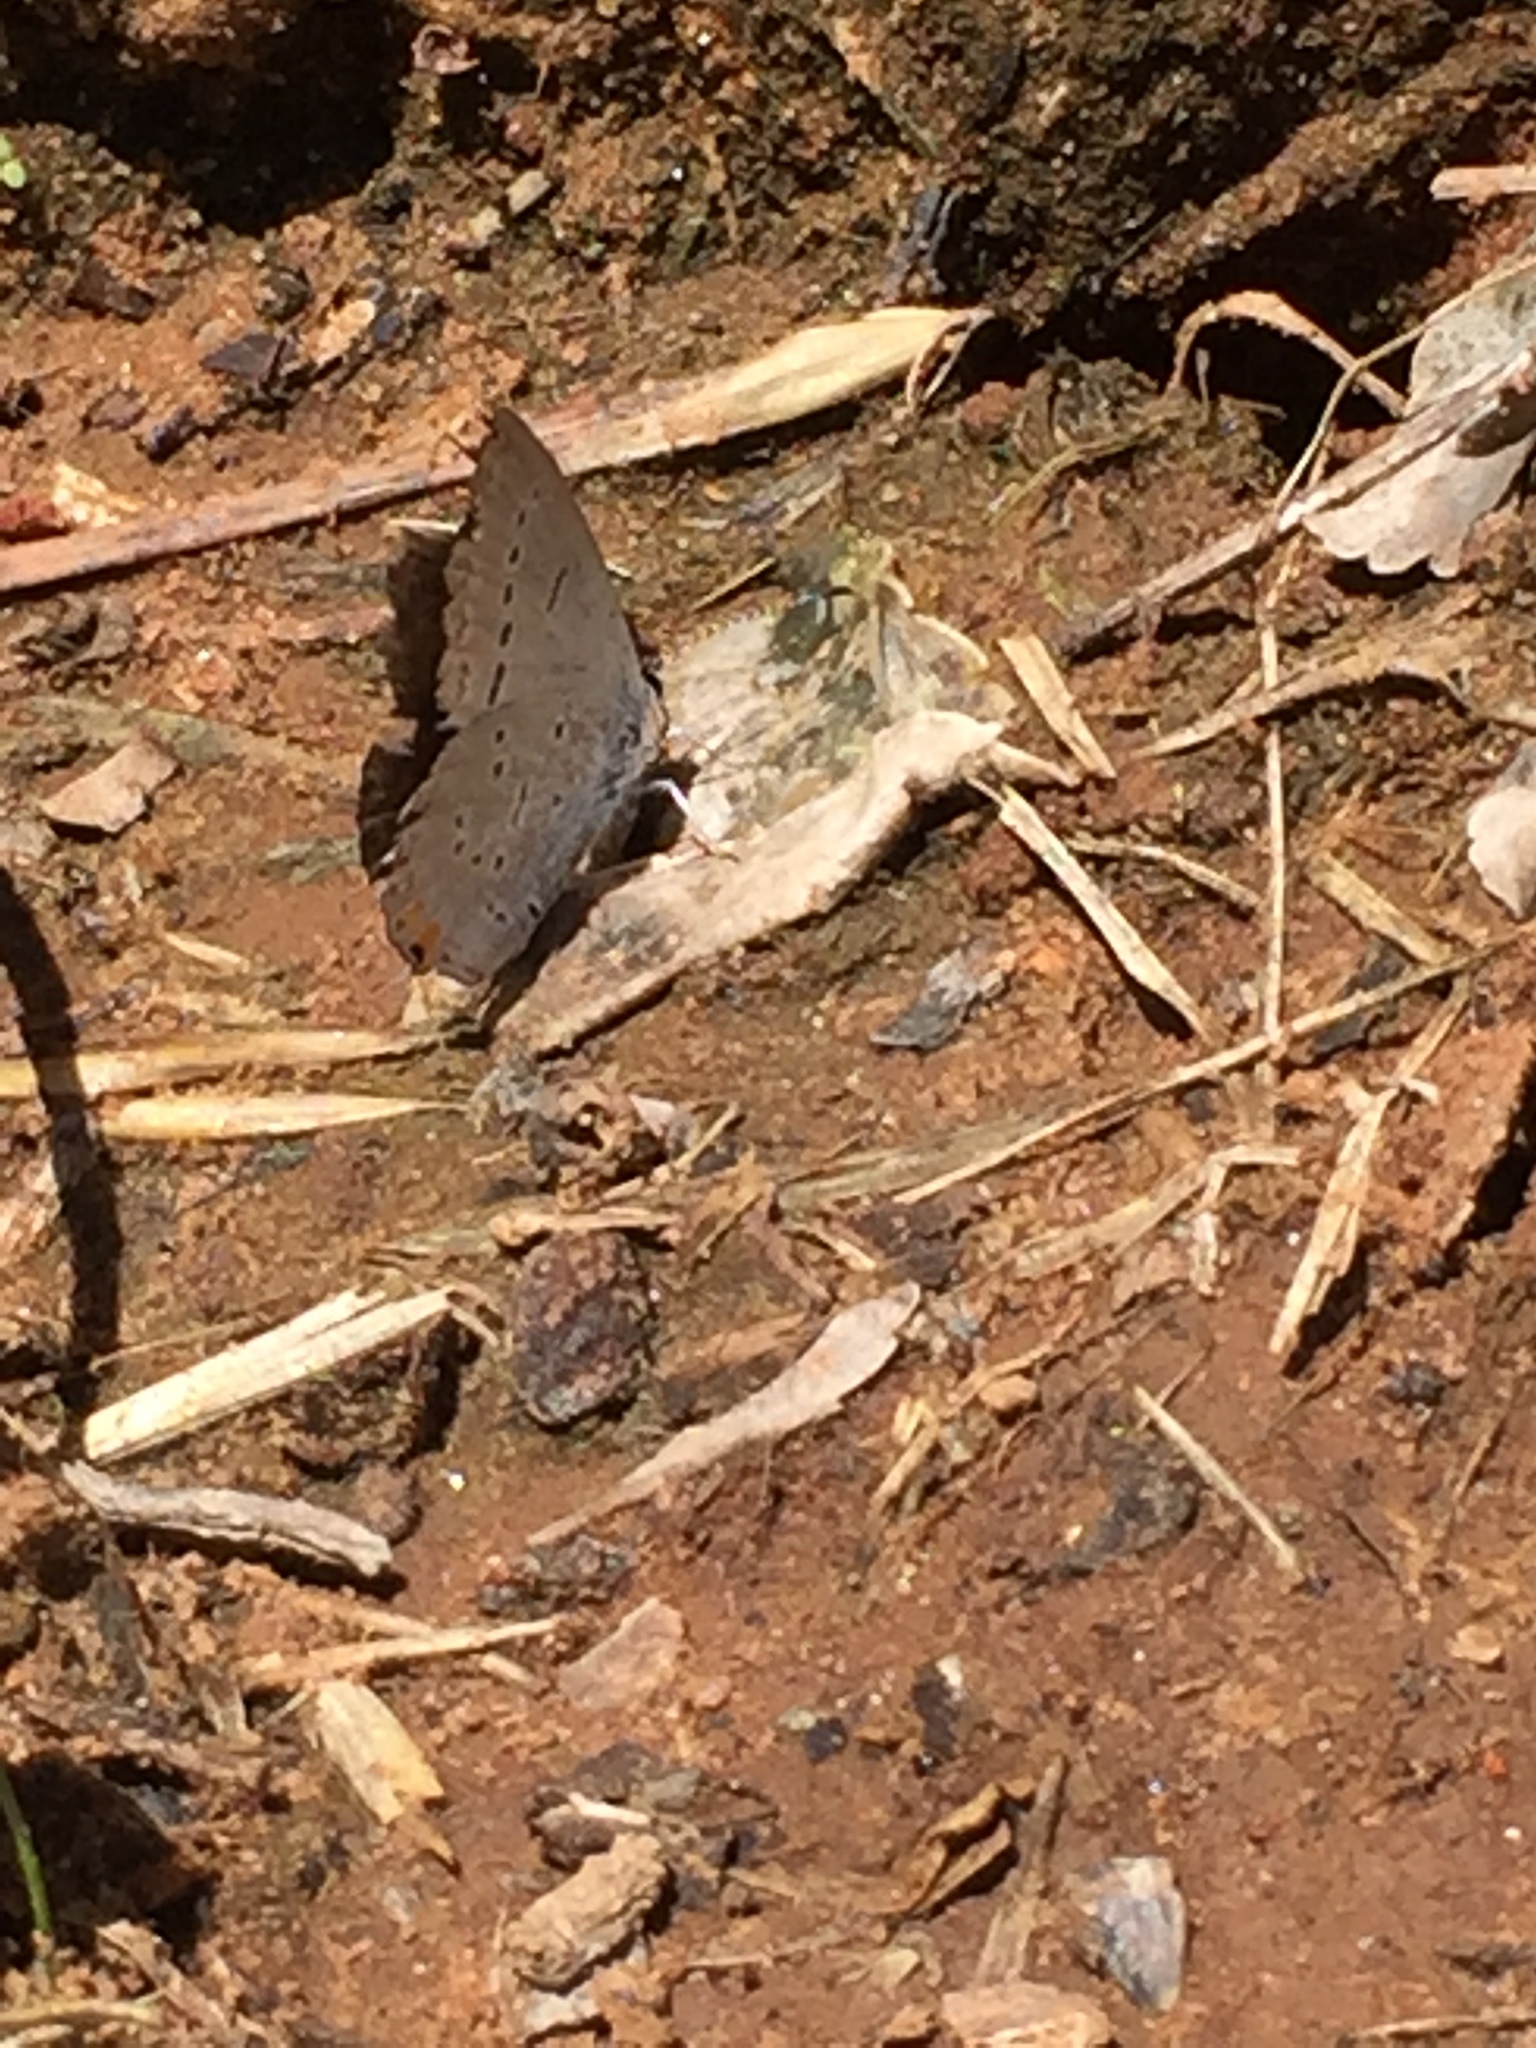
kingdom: Animalia
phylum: Arthropoda
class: Insecta
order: Lepidoptera
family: Lycaenidae
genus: Elkalyce
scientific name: Elkalyce comyntas
